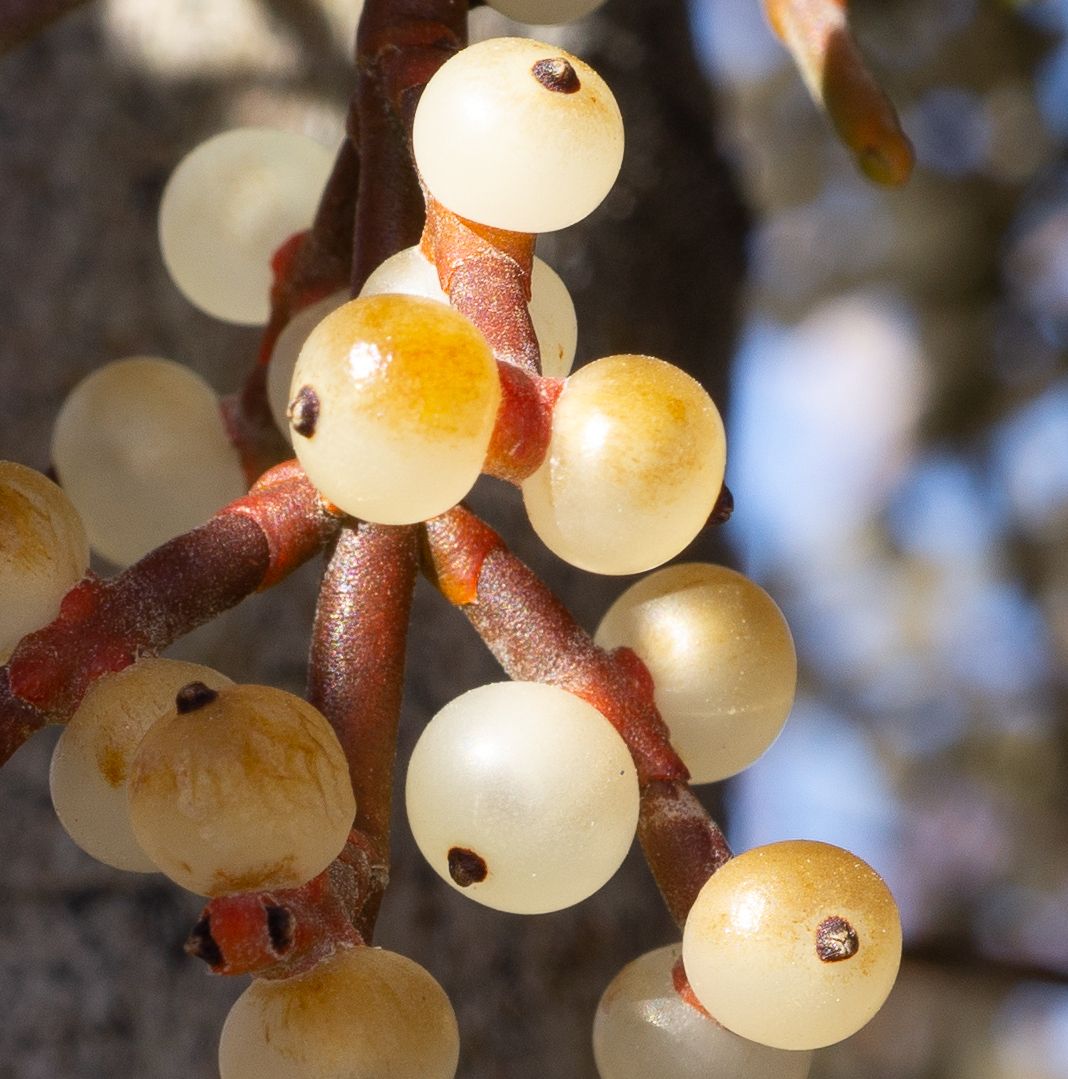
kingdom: Plantae
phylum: Tracheophyta
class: Magnoliopsida
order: Santalales
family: Viscaceae
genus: Phoradendron
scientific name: Phoradendron californicum
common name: Acacia mistletoe
